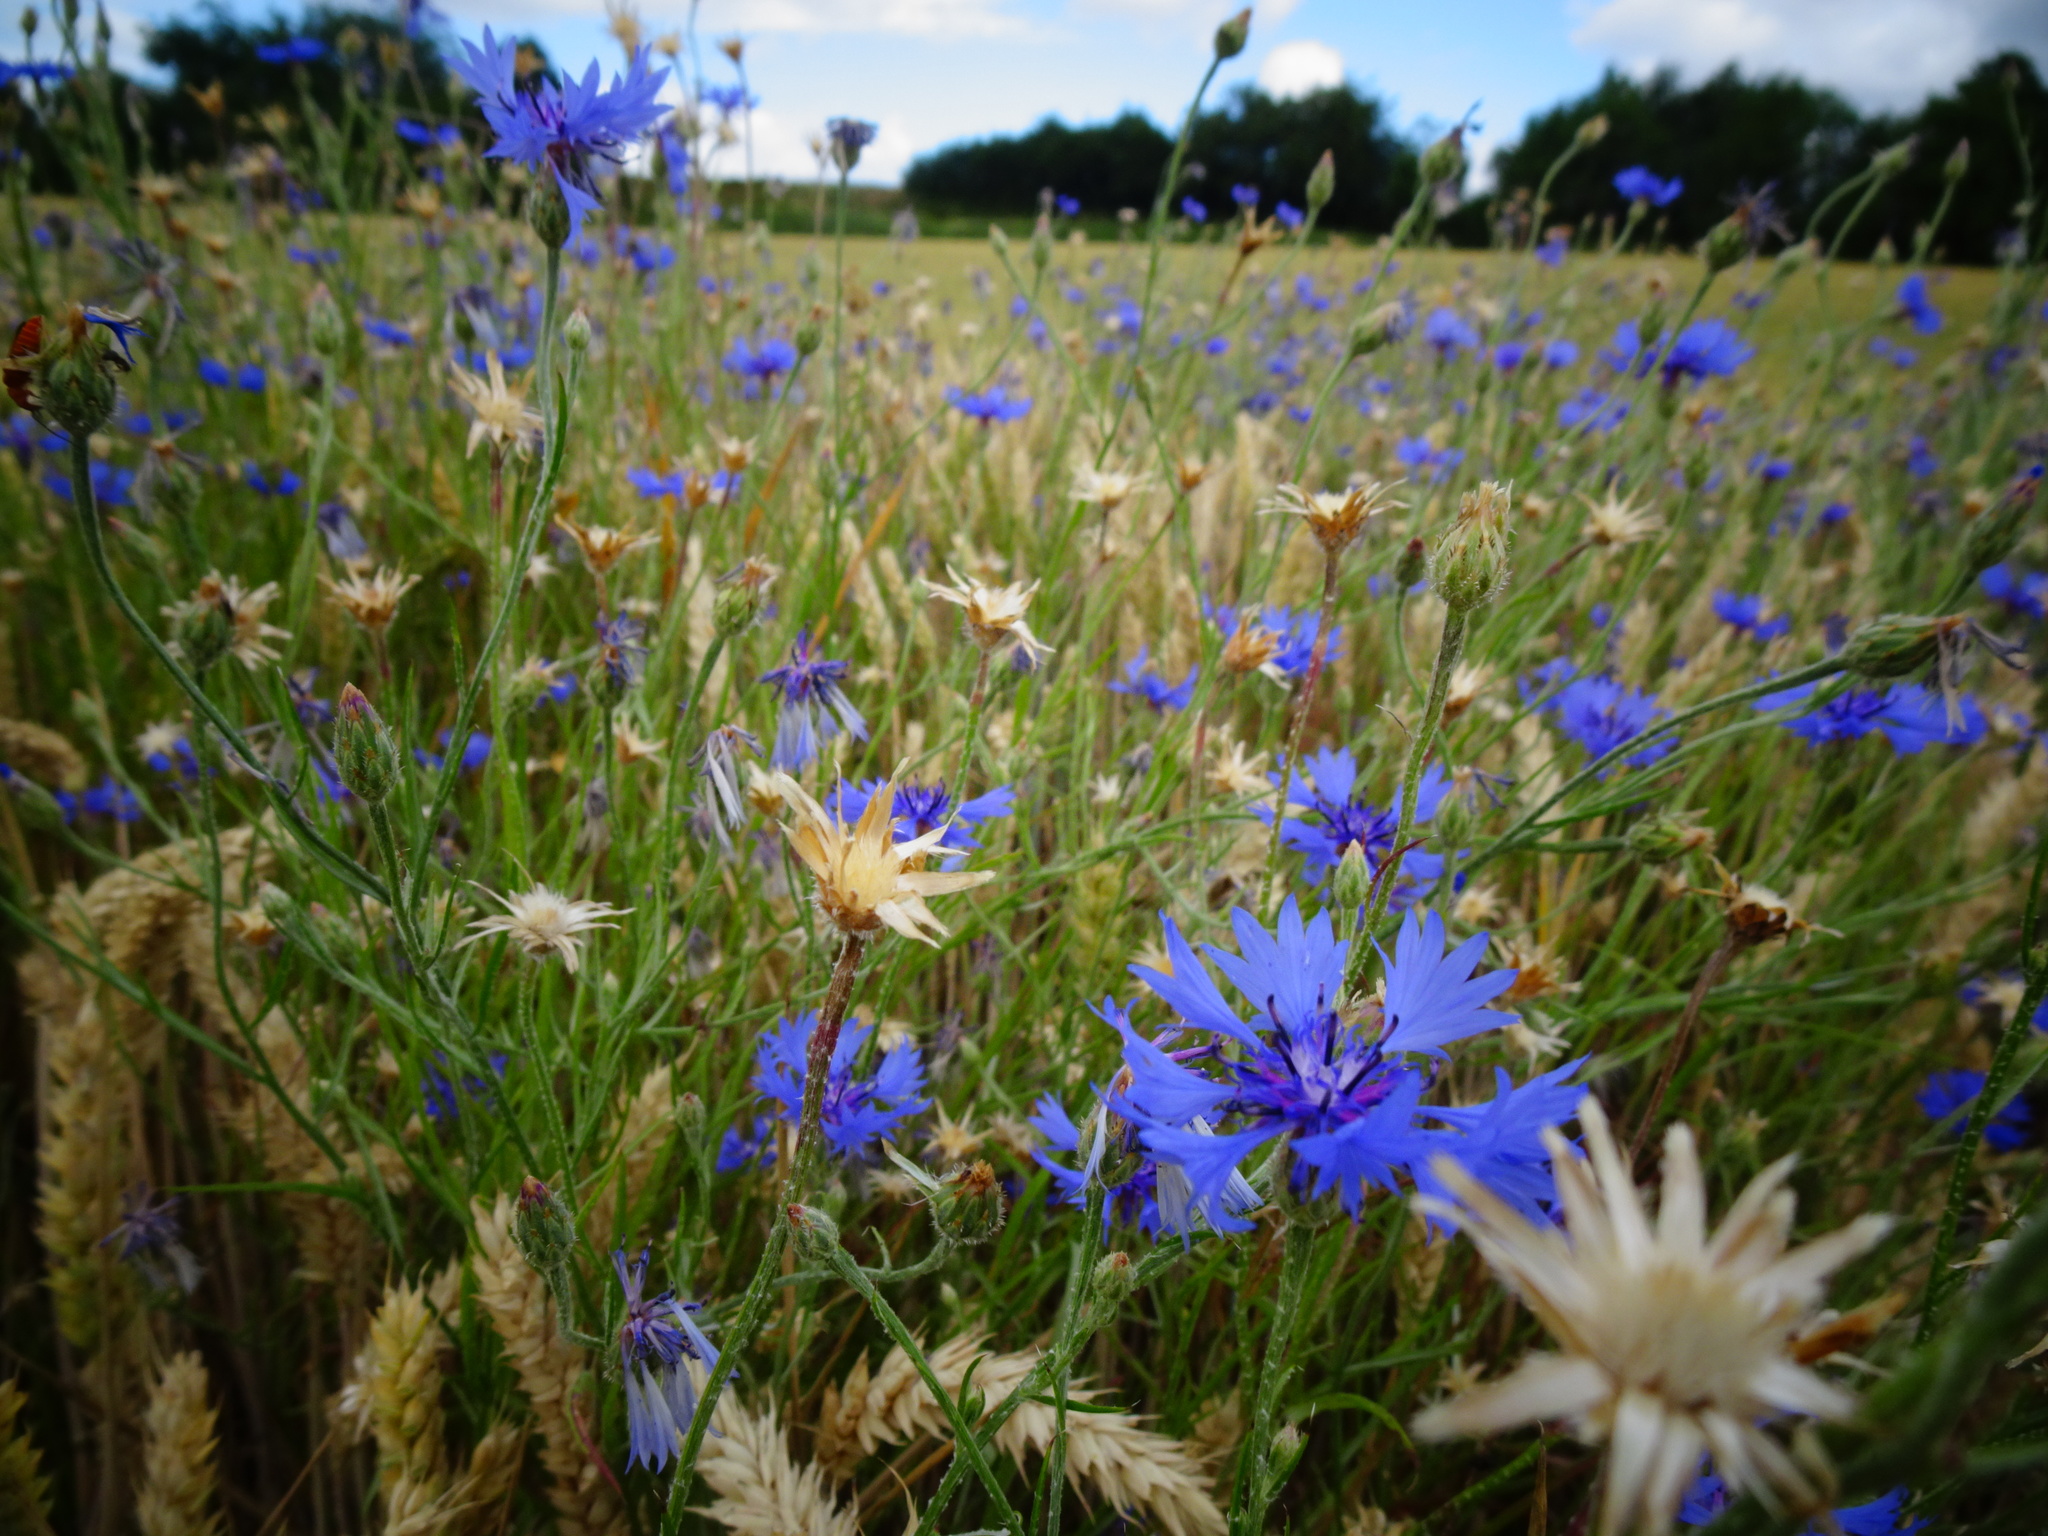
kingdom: Plantae
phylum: Tracheophyta
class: Magnoliopsida
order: Asterales
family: Asteraceae
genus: Centaurea
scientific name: Centaurea cyanus
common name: Cornflower
